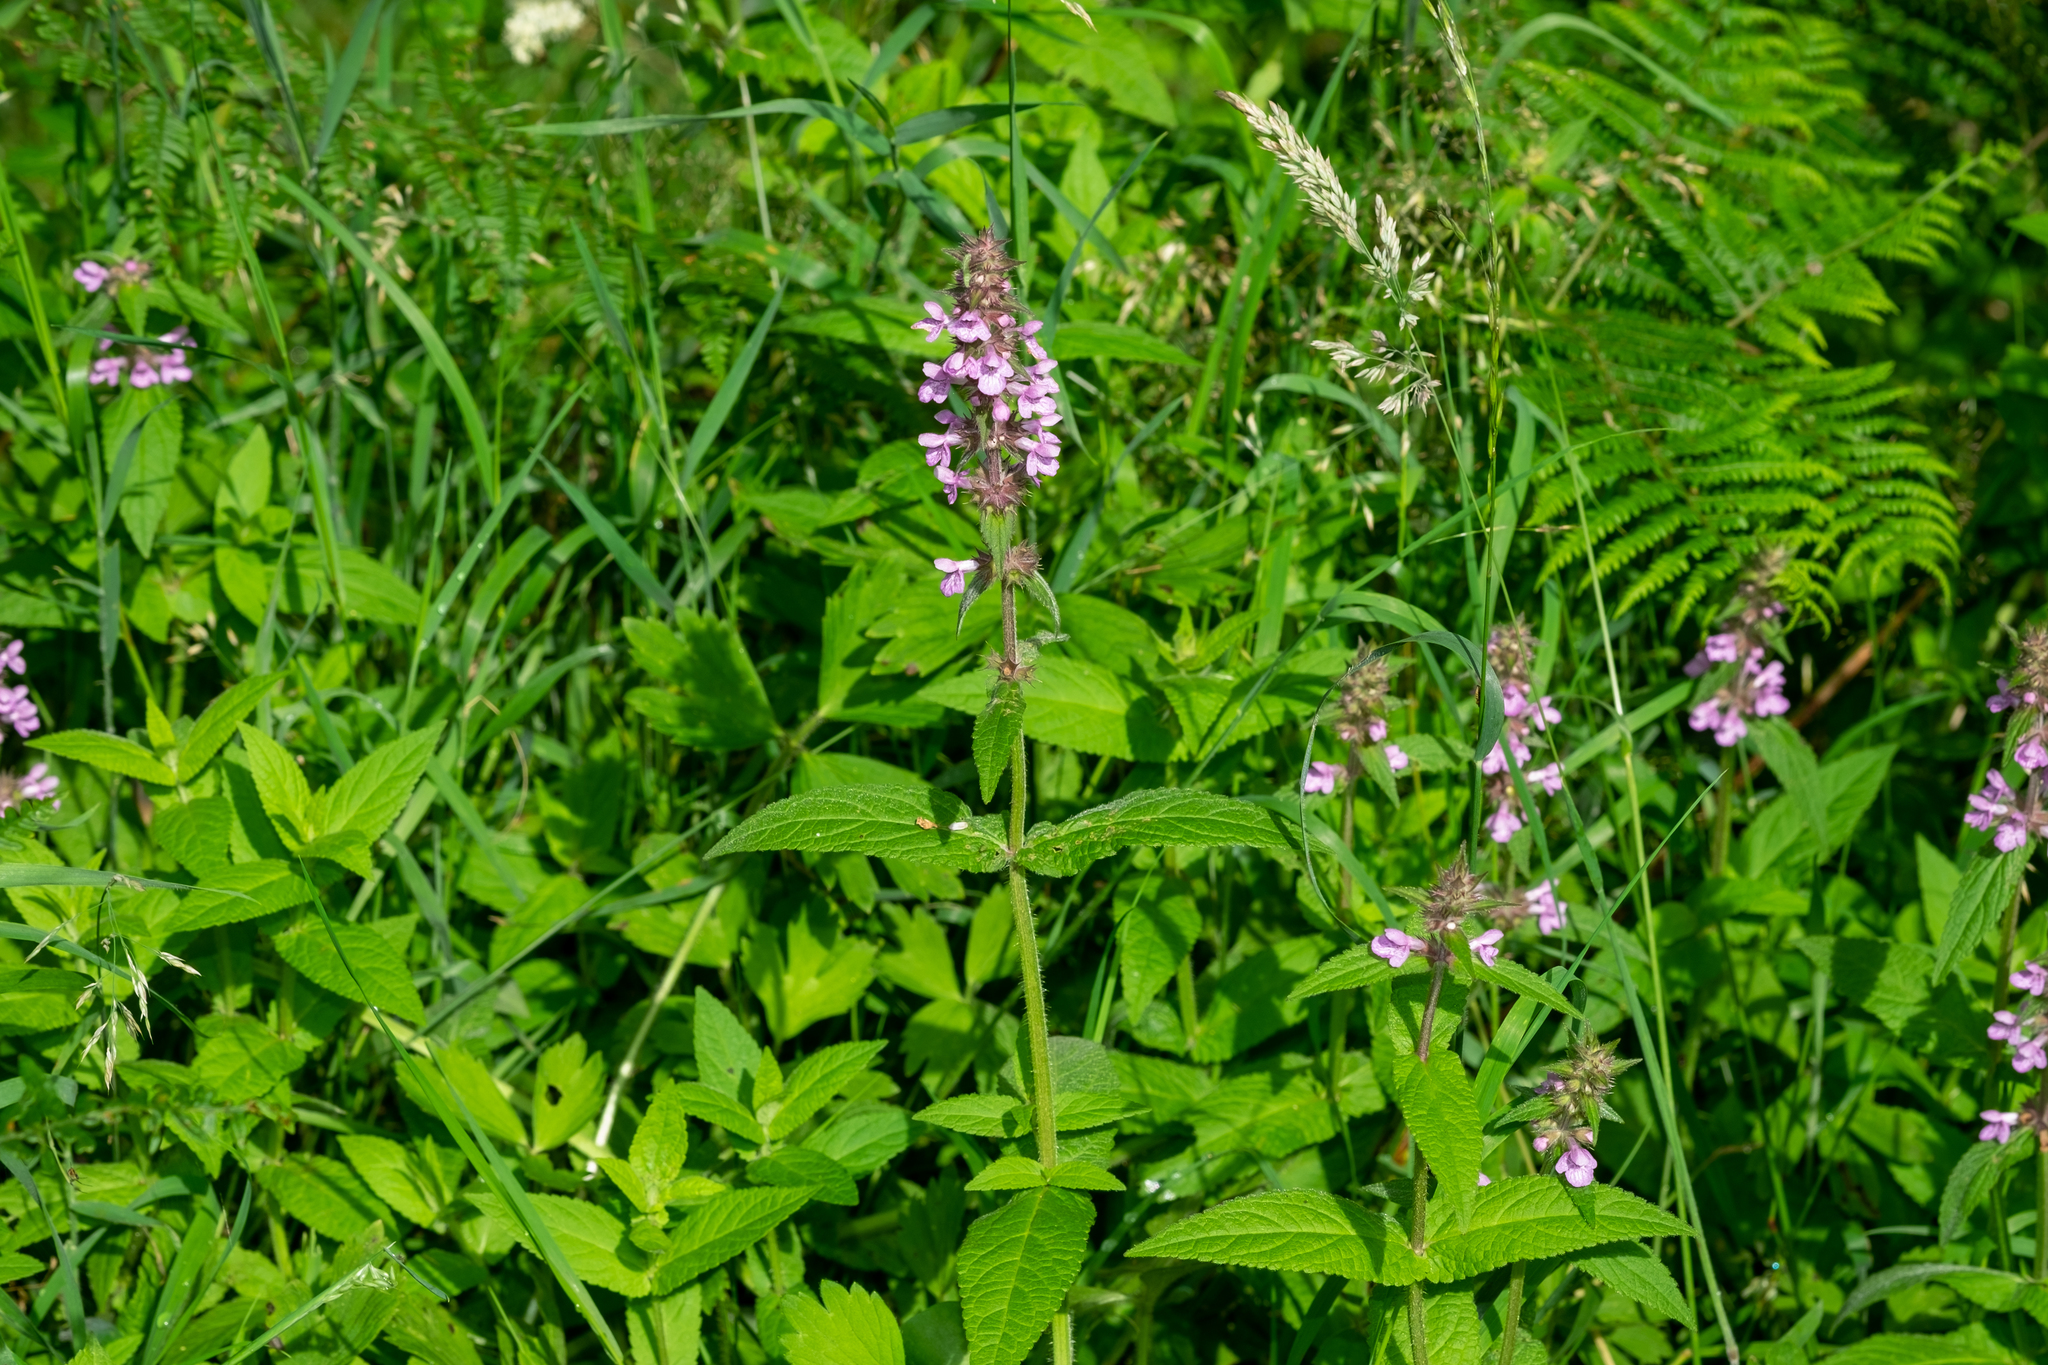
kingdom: Plantae
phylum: Tracheophyta
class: Magnoliopsida
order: Lamiales
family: Lamiaceae
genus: Stachys
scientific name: Stachys palustris
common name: Marsh woundwort
